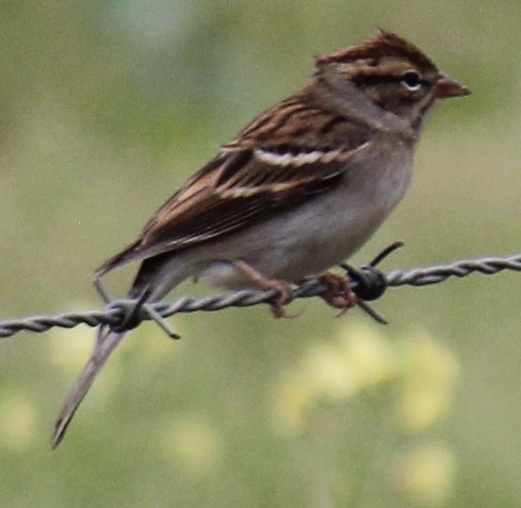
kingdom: Animalia
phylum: Chordata
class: Aves
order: Passeriformes
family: Passerellidae
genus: Spizella
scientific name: Spizella passerina
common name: Chipping sparrow
